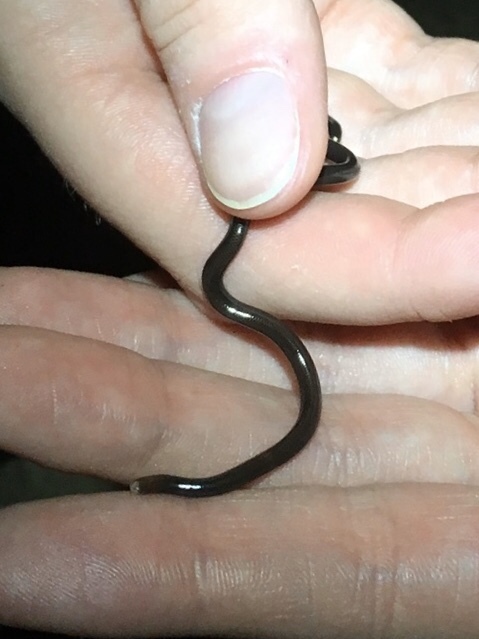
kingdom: Animalia
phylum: Chordata
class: Squamata
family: Anomalepididae
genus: Liotyphlops
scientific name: Liotyphlops albirostris
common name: Whitenose blind snake
